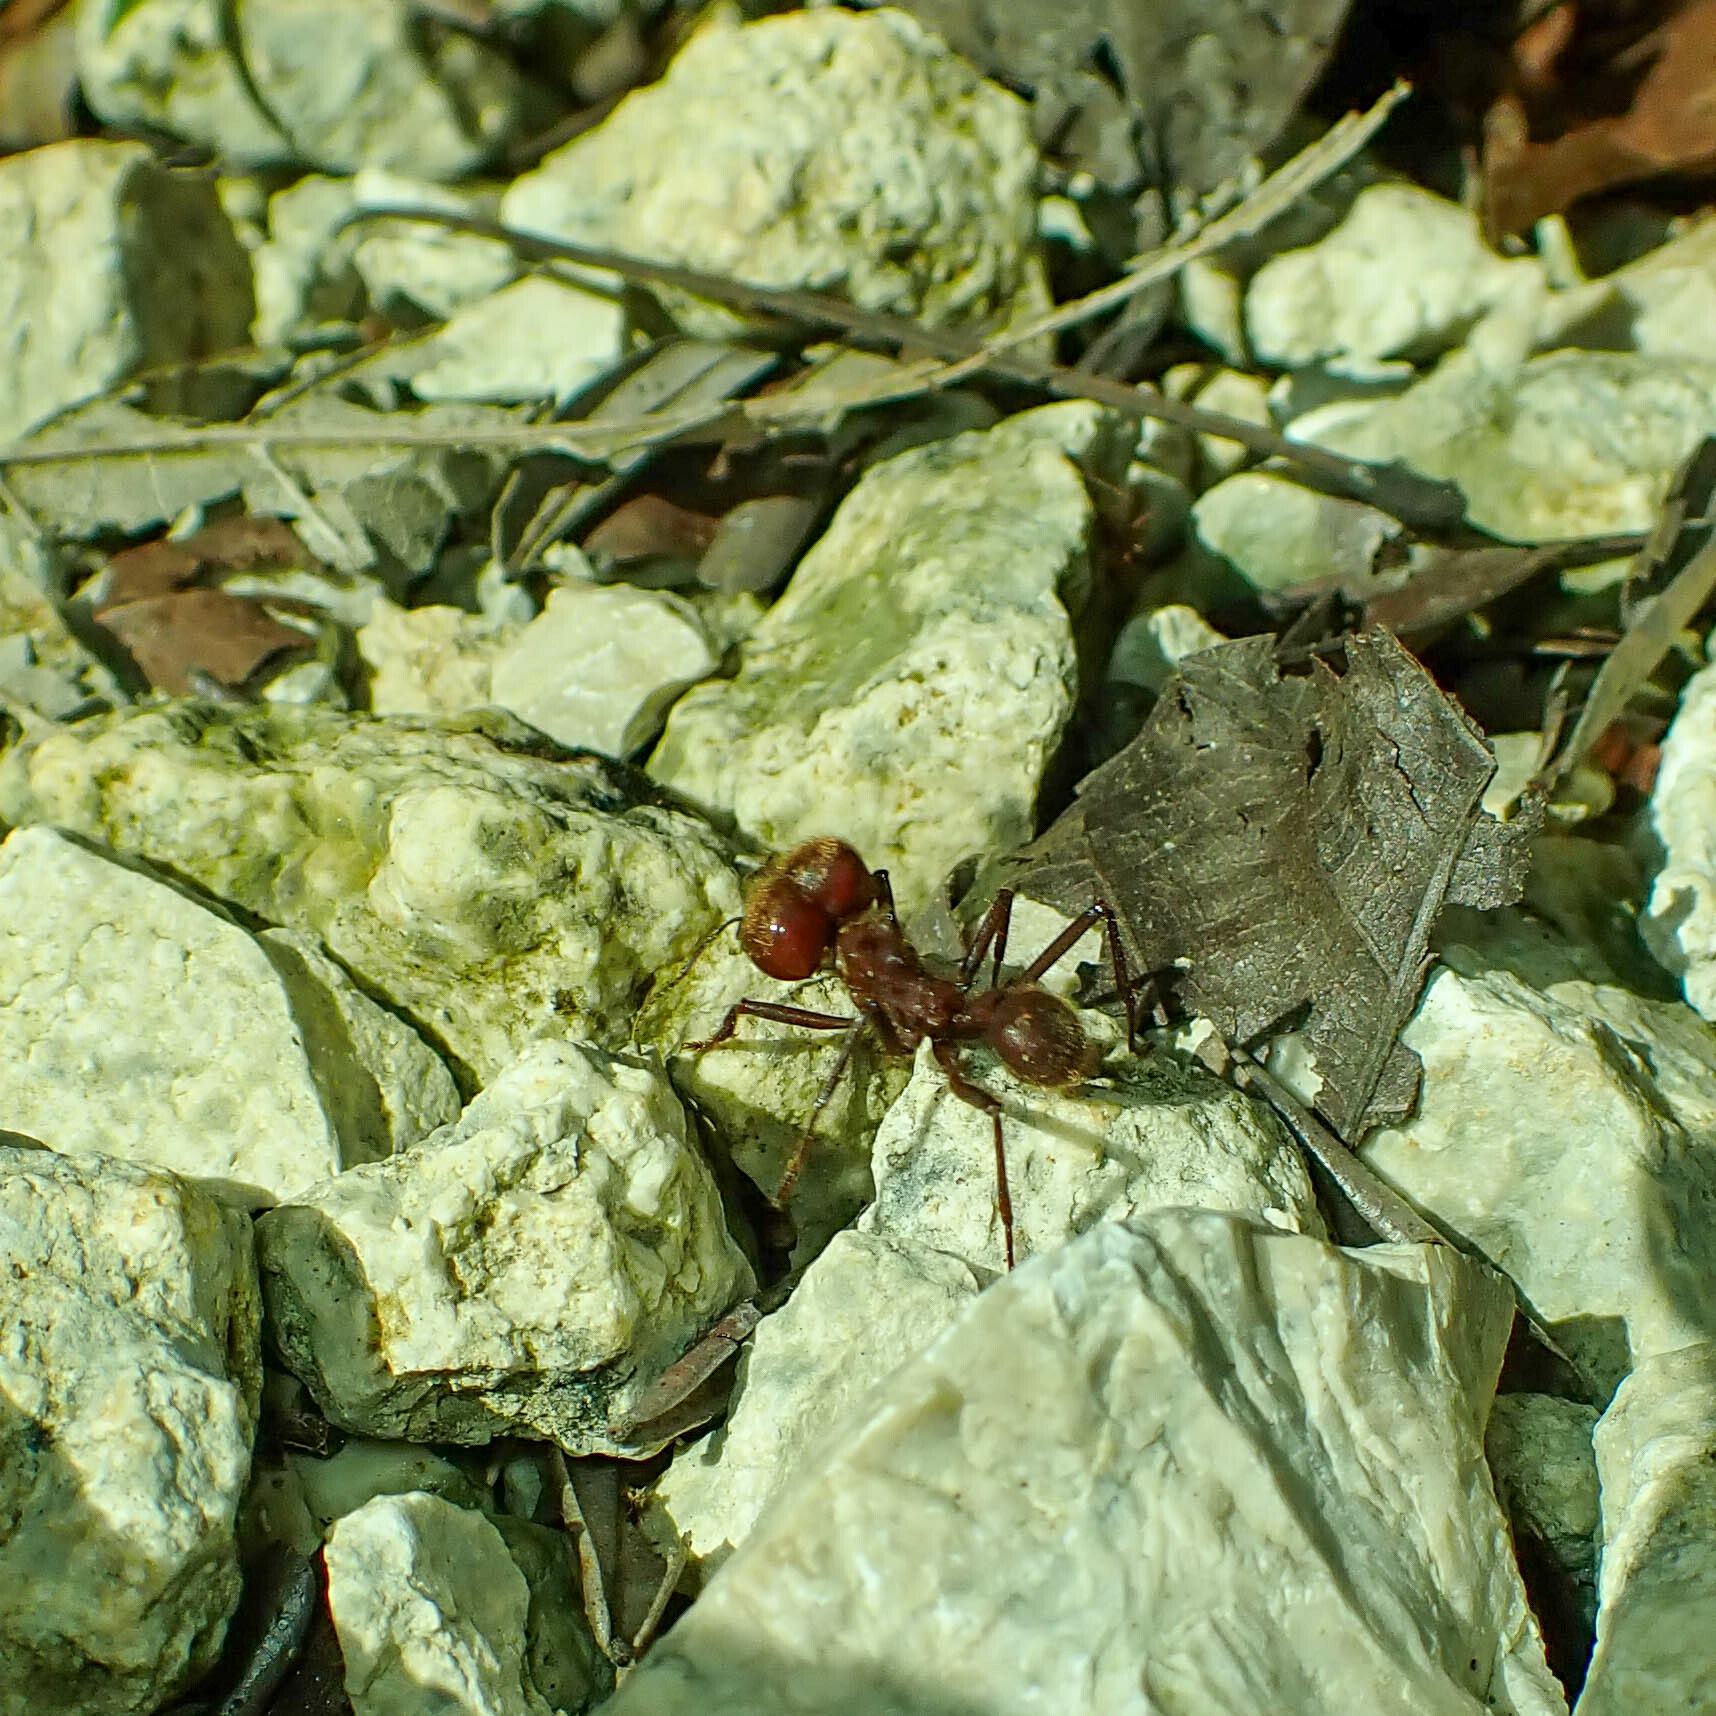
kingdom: Animalia
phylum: Arthropoda
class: Insecta
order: Hymenoptera
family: Formicidae
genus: Atta
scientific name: Atta cephalotes
